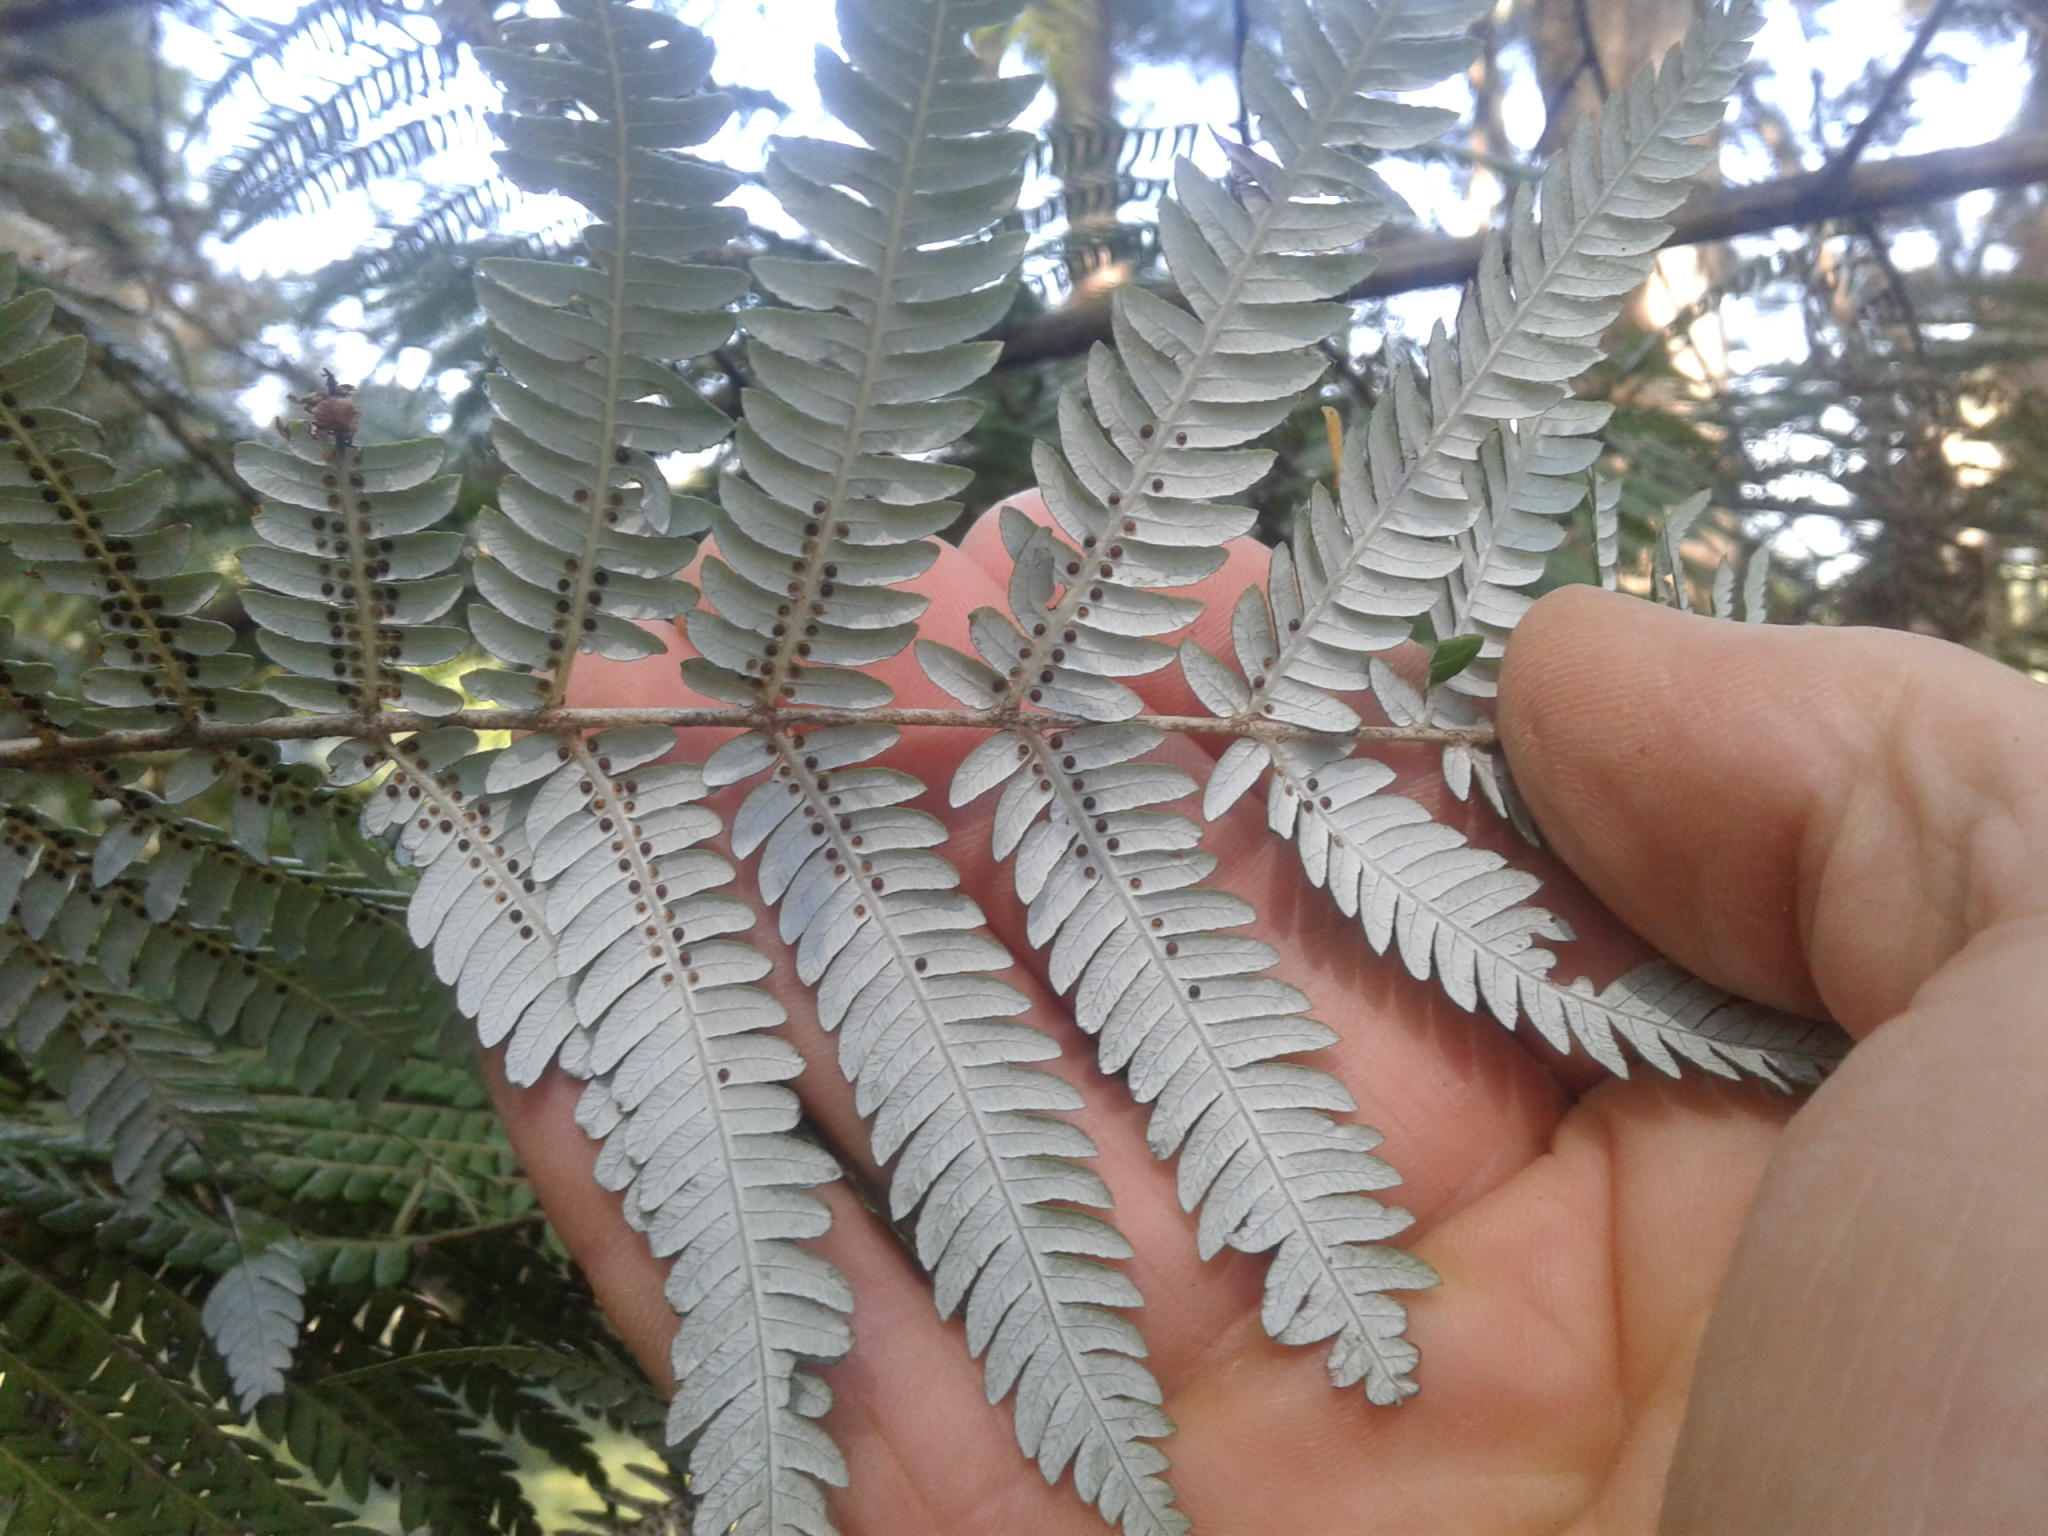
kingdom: Plantae
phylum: Tracheophyta
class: Polypodiopsida
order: Cyatheales
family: Cyatheaceae
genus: Alsophila
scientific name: Alsophila dealbata
